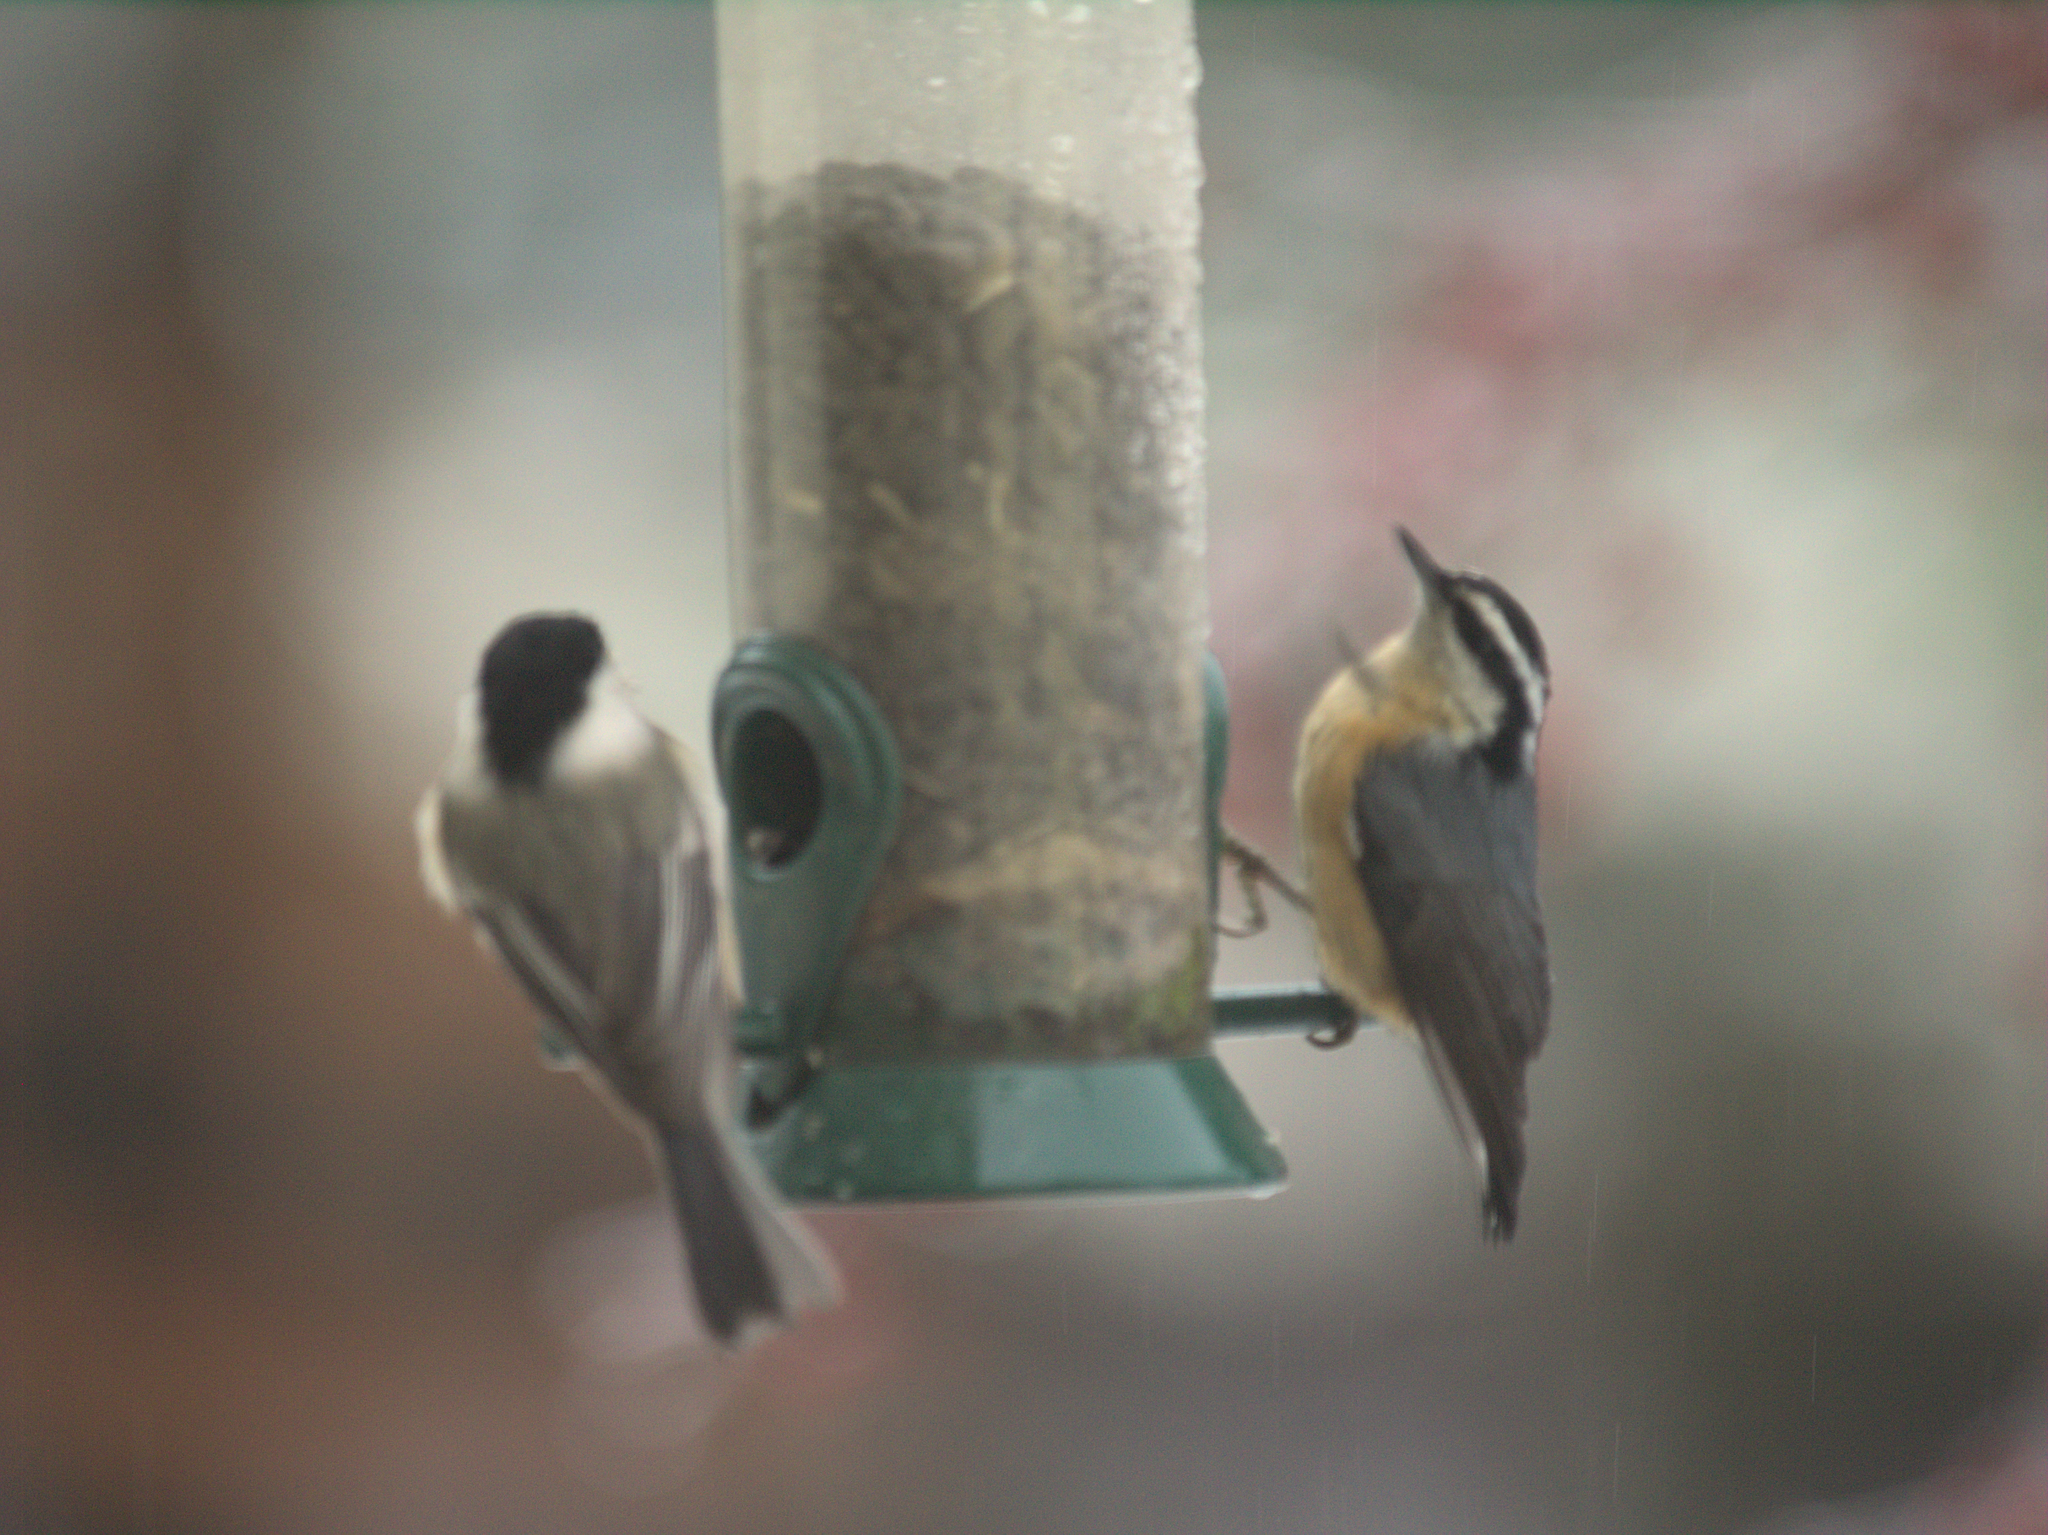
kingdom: Animalia
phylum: Chordata
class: Aves
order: Passeriformes
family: Paridae
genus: Poecile
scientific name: Poecile atricapillus
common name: Black-capped chickadee
